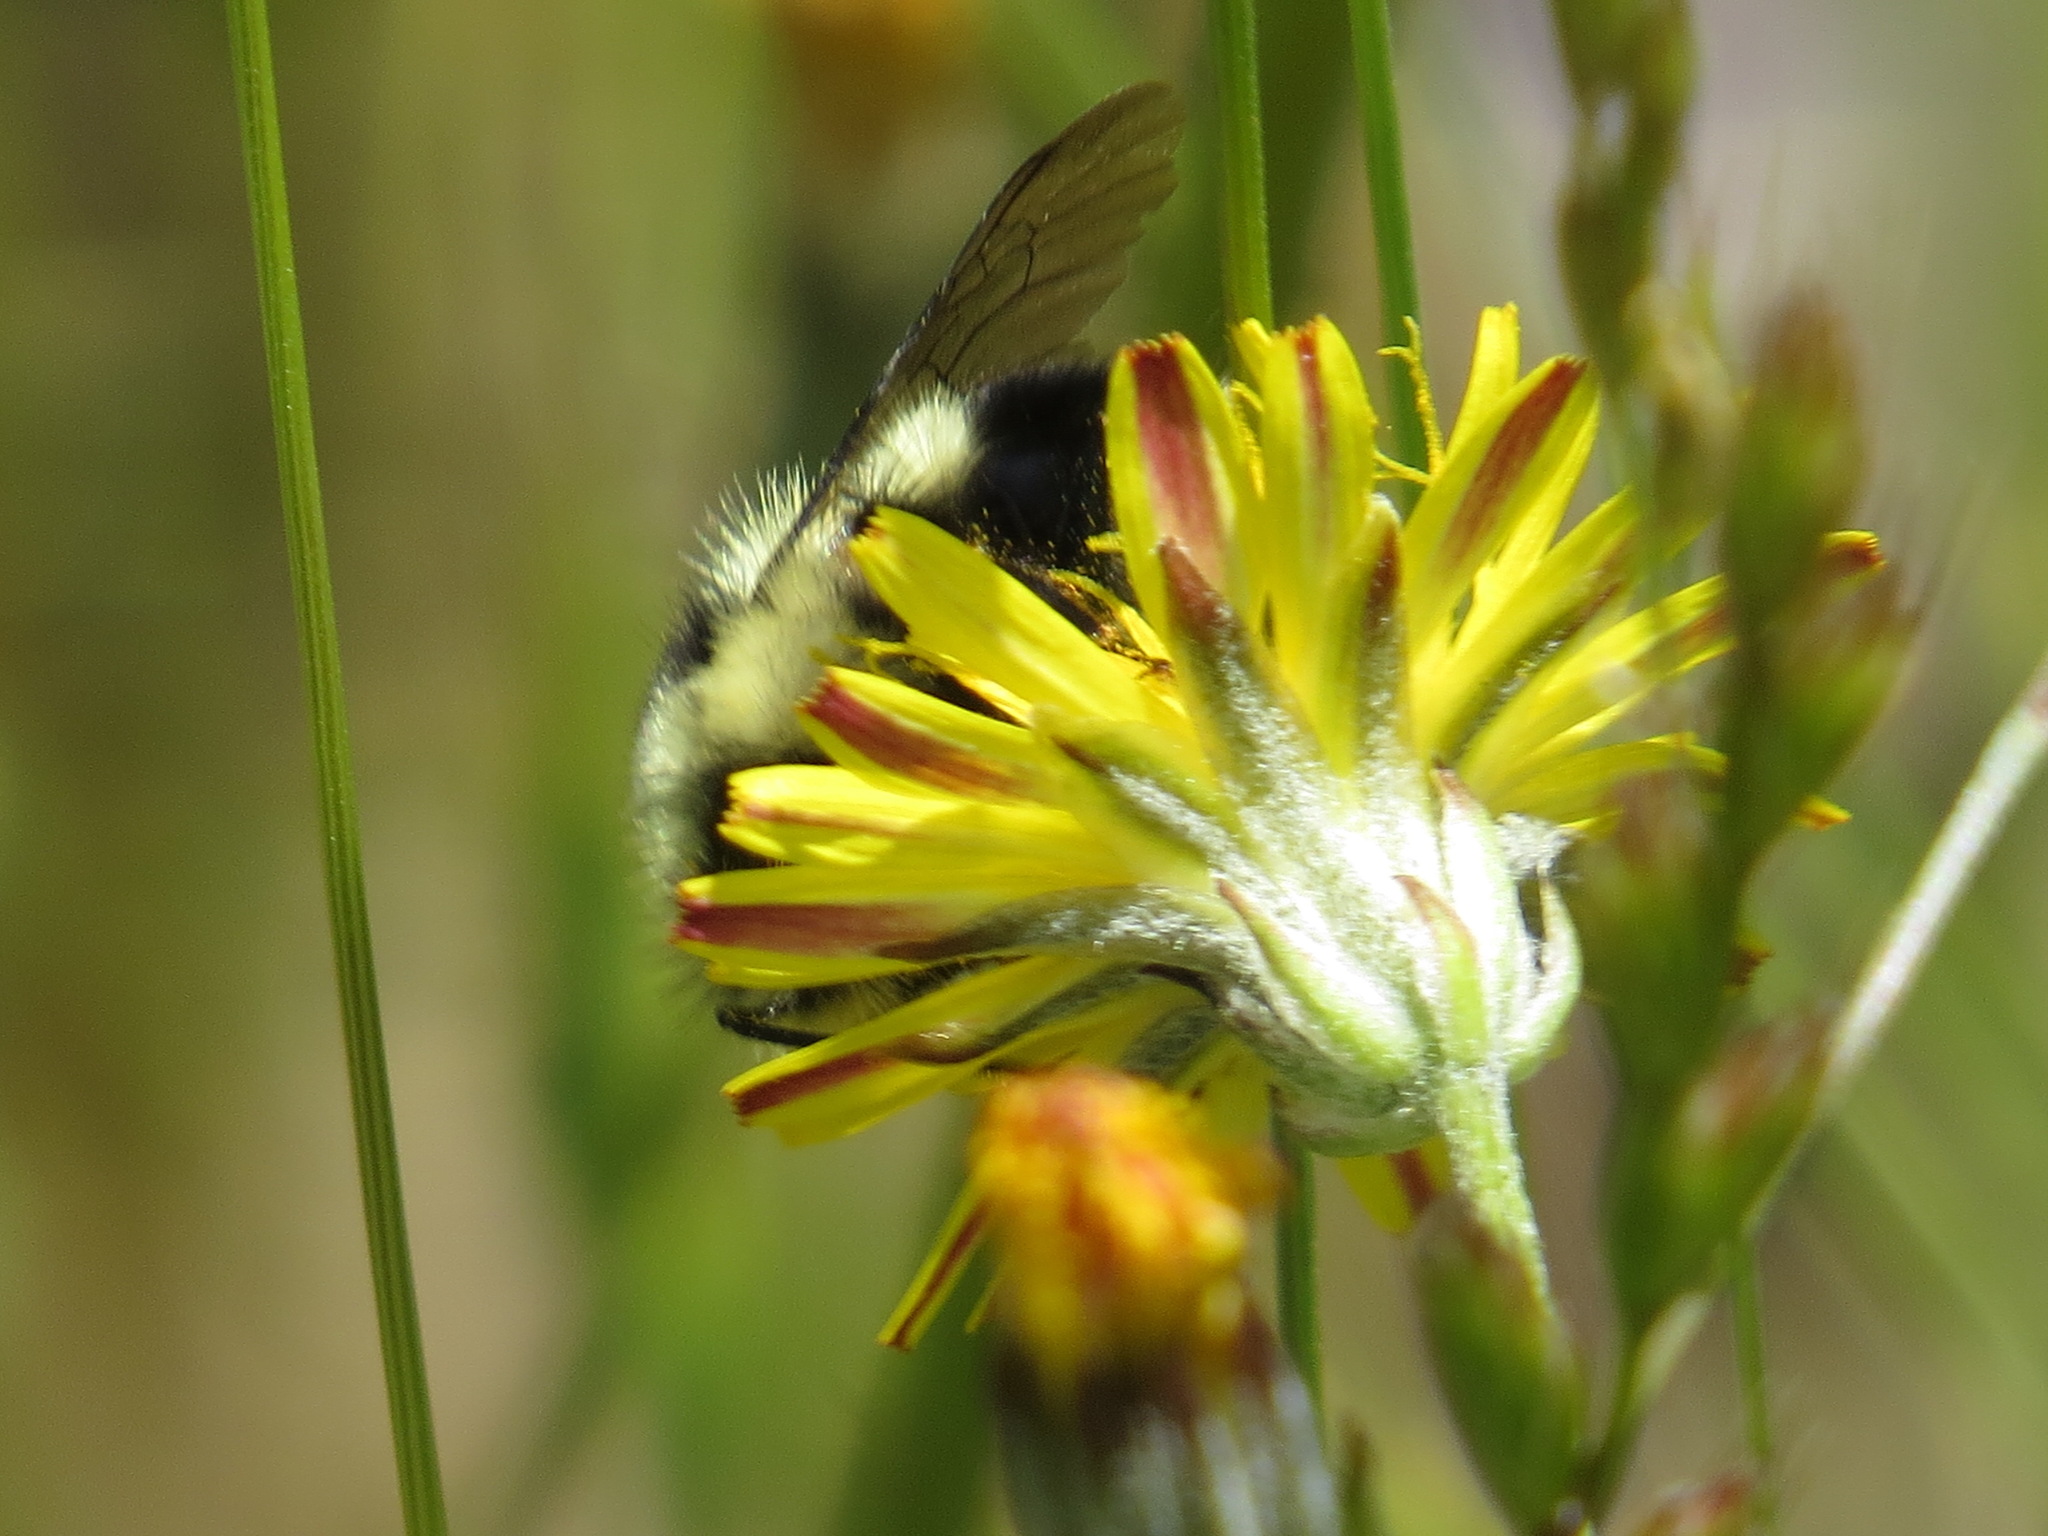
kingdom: Animalia
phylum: Arthropoda
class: Insecta
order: Hymenoptera
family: Apidae
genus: Bombus
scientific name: Bombus melanopygus
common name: Black tail bumble bee
